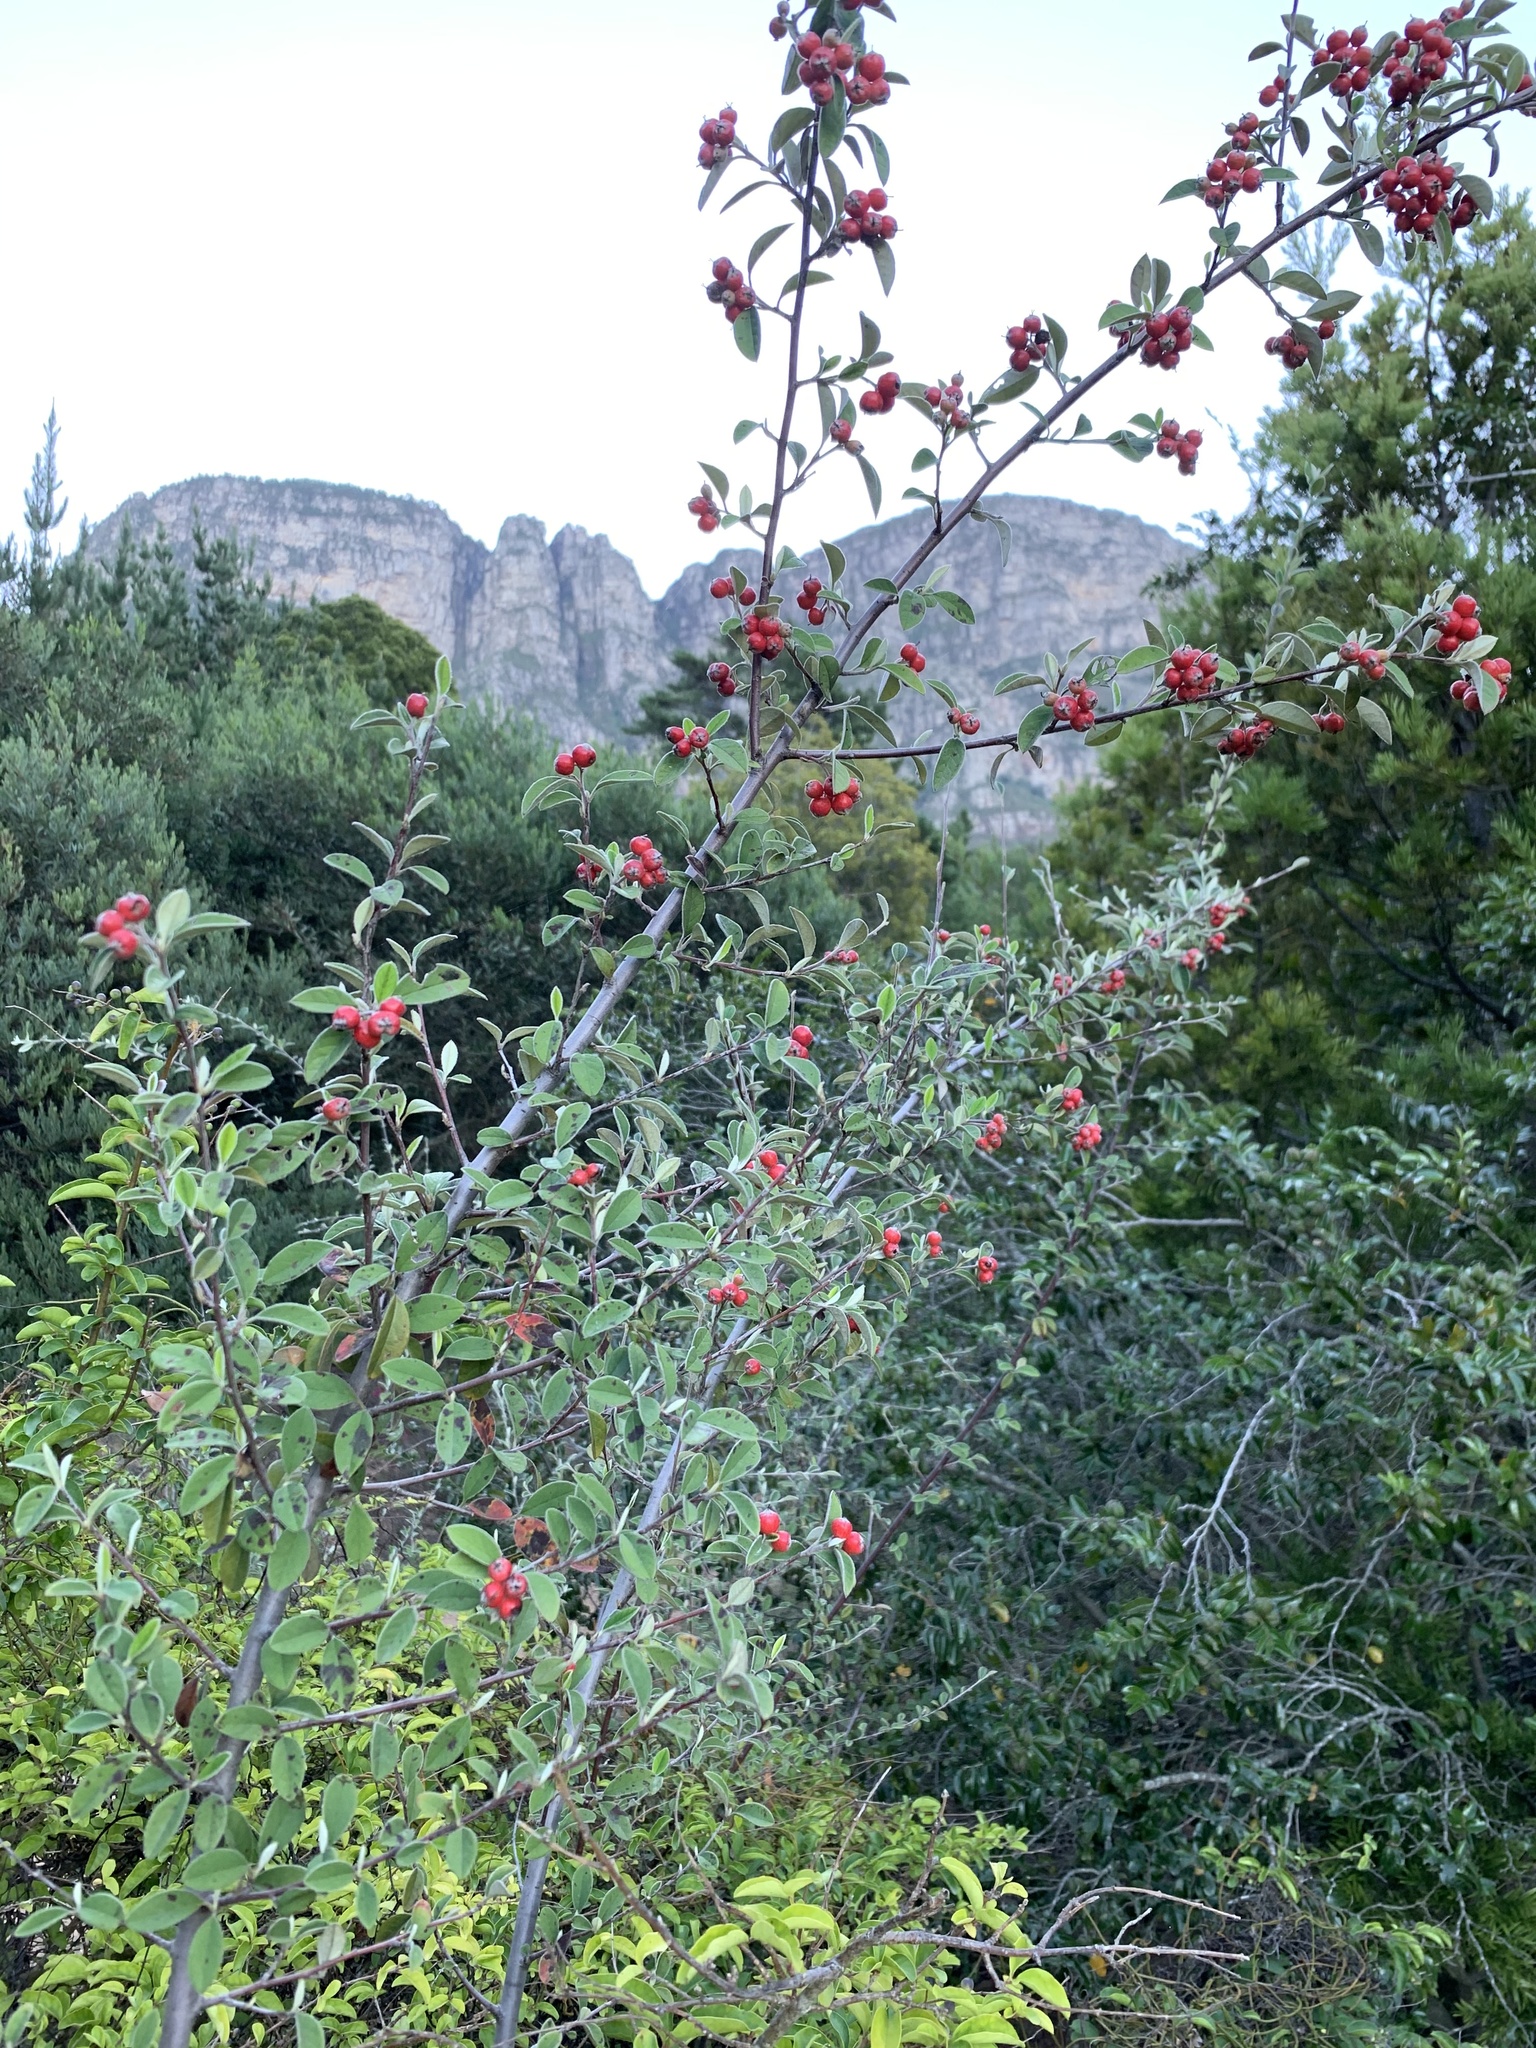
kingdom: Plantae
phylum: Tracheophyta
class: Magnoliopsida
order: Rosales
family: Rosaceae
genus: Cotoneaster
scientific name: Cotoneaster pannosus
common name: Silverleaf cotoneaster
